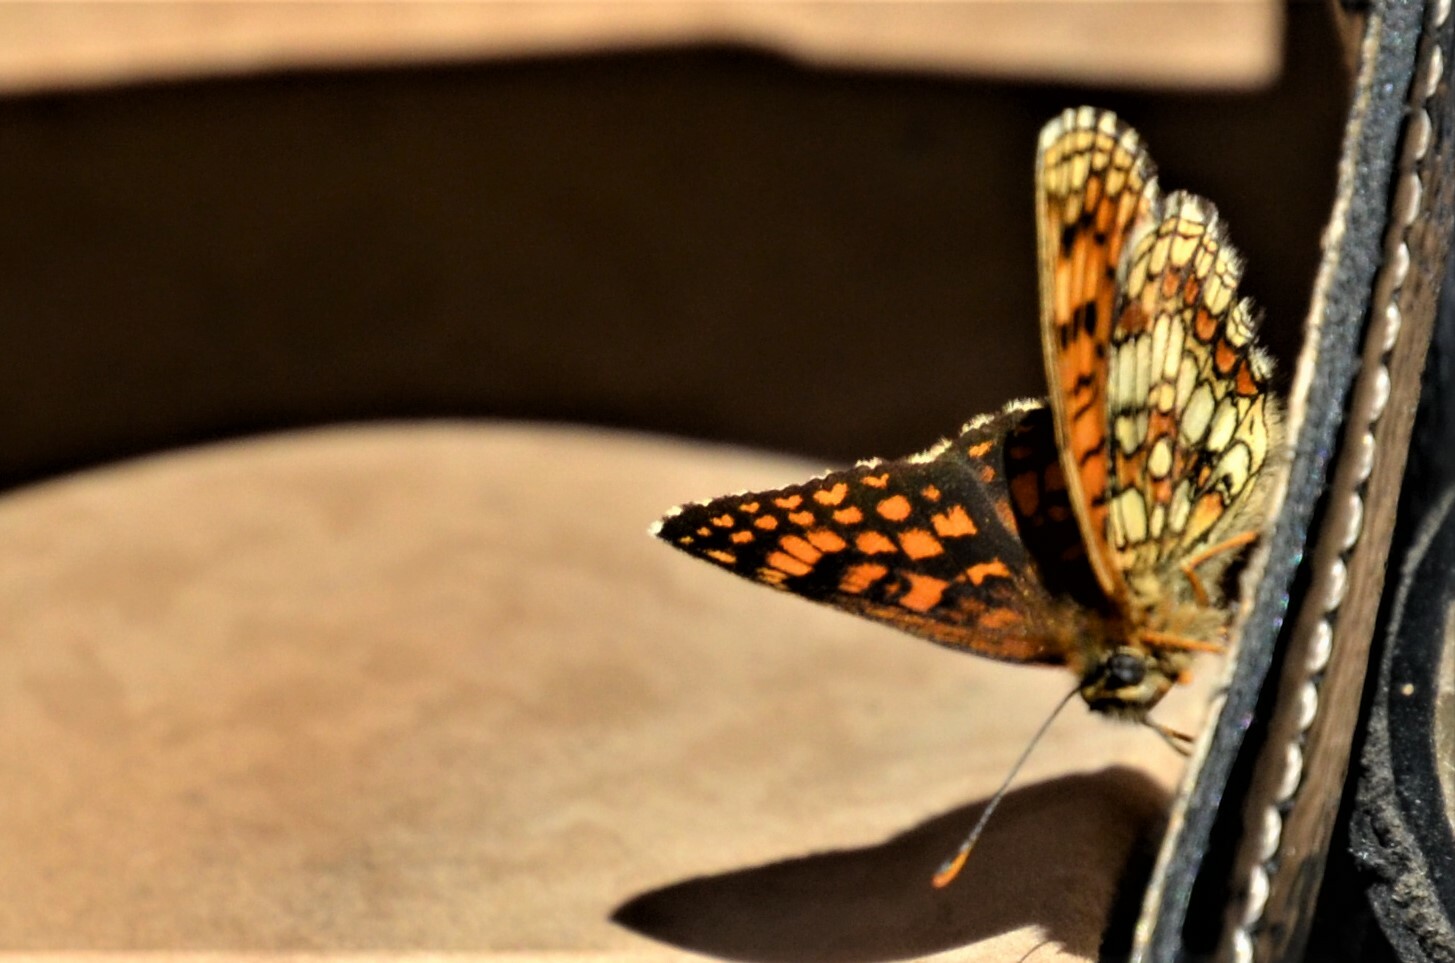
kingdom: Animalia
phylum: Arthropoda
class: Insecta
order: Lepidoptera
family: Nymphalidae
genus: Melitaea
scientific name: Melitaea athalia
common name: Heath fritillary
